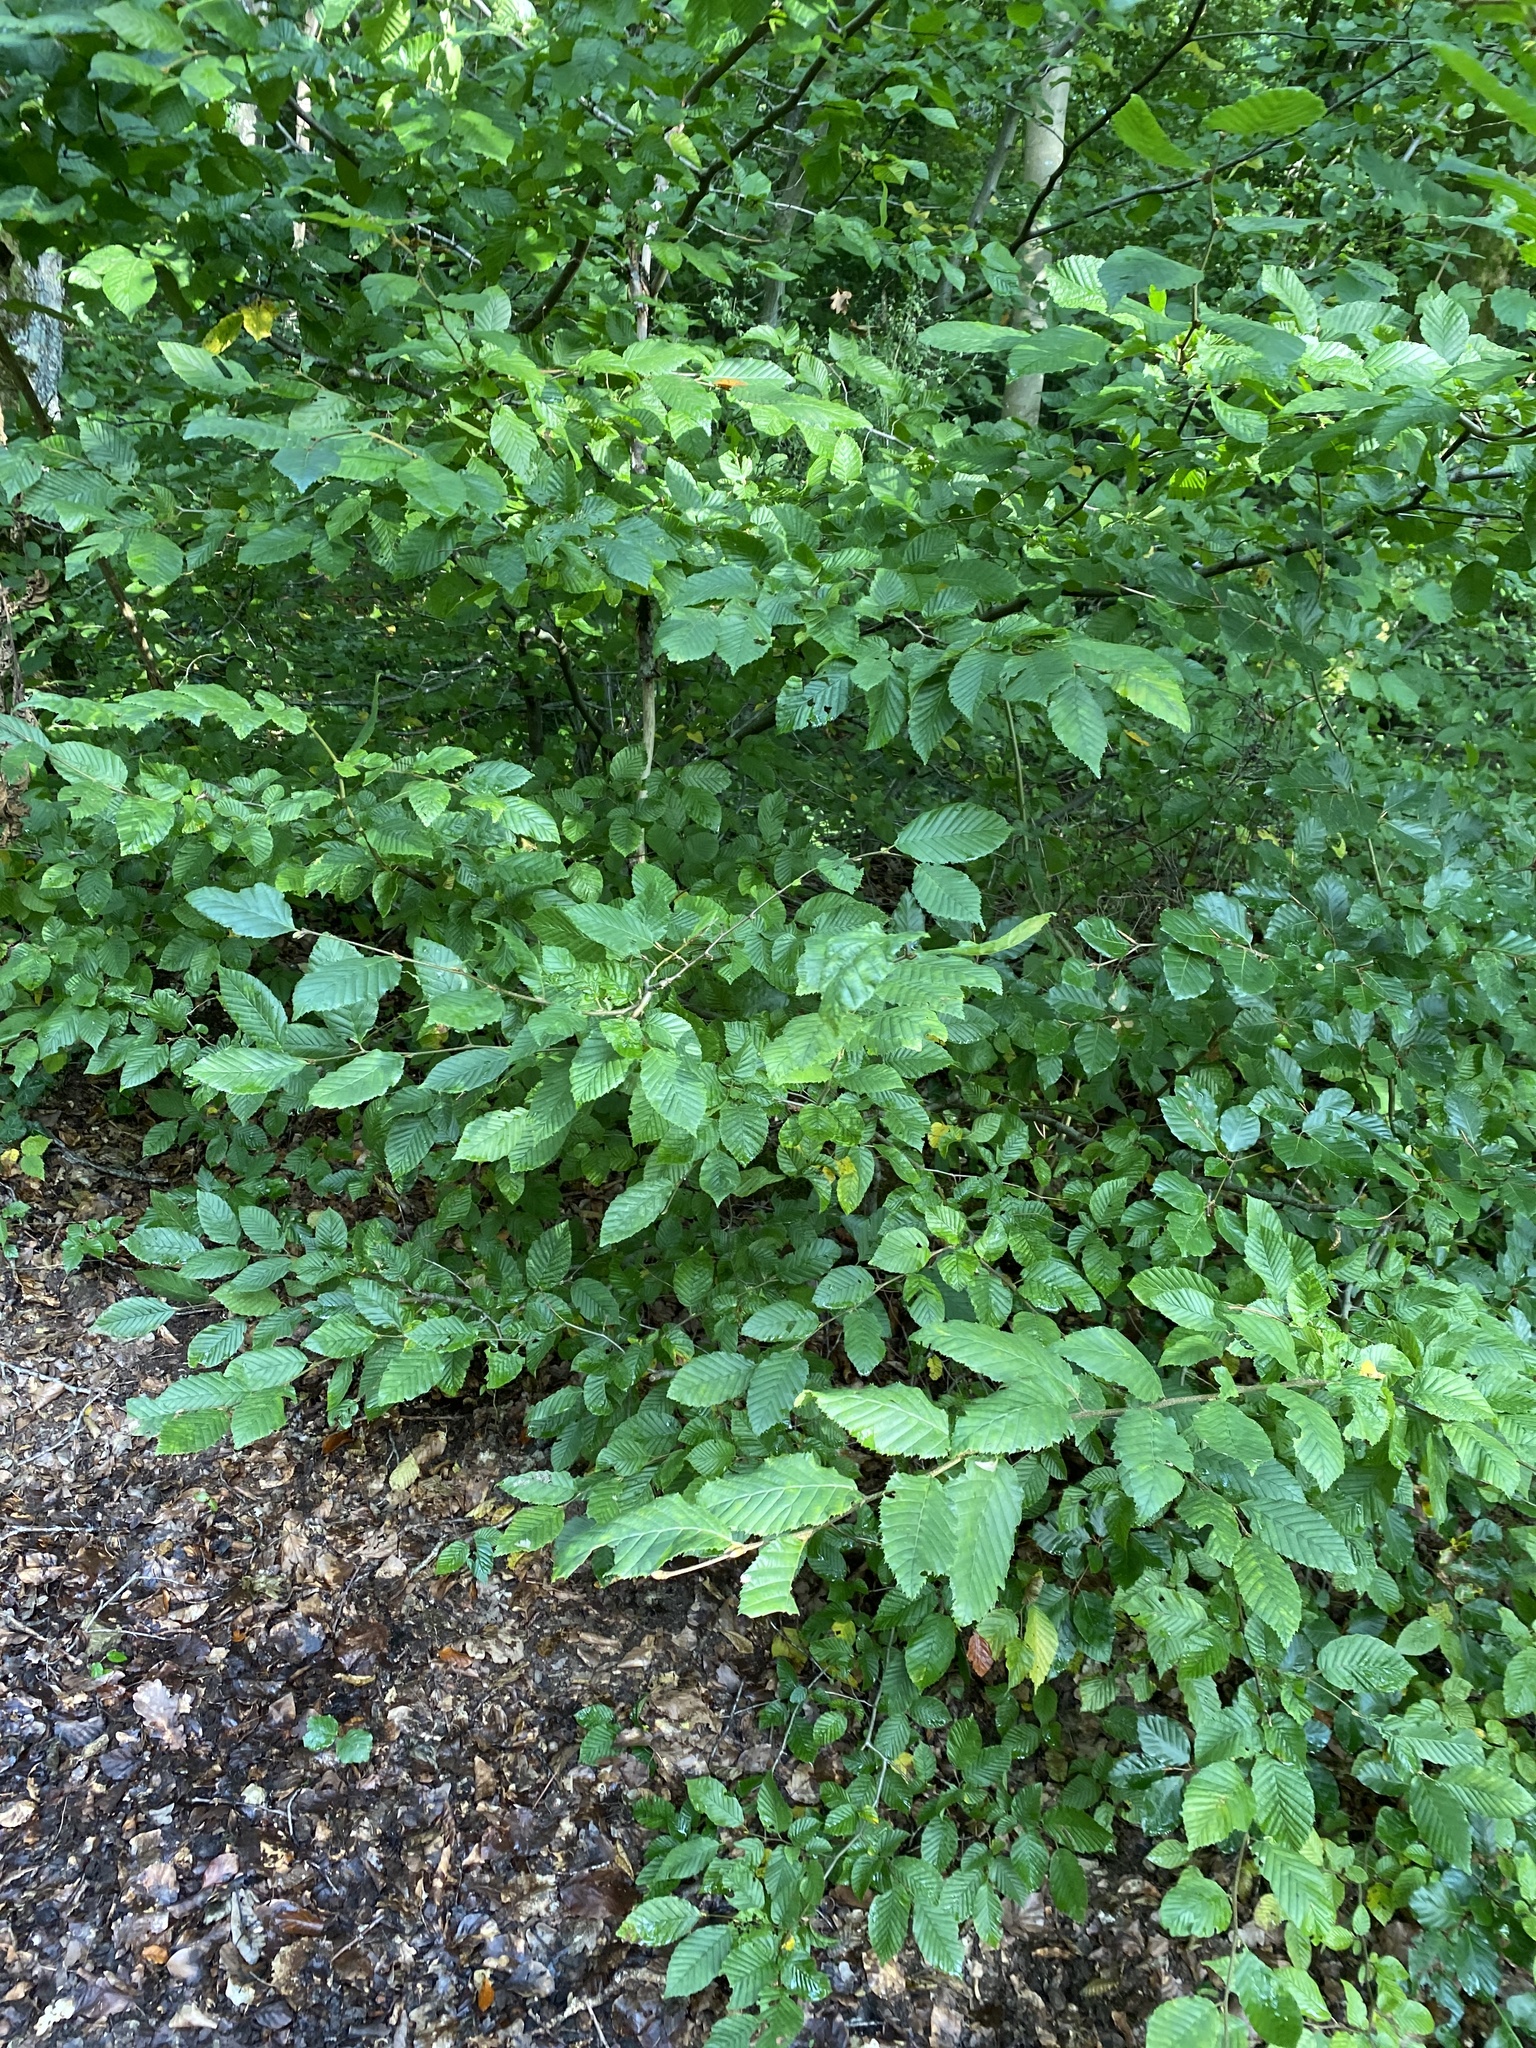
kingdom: Plantae
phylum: Tracheophyta
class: Magnoliopsida
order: Fagales
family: Betulaceae
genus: Carpinus
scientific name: Carpinus betulus
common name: Hornbeam
